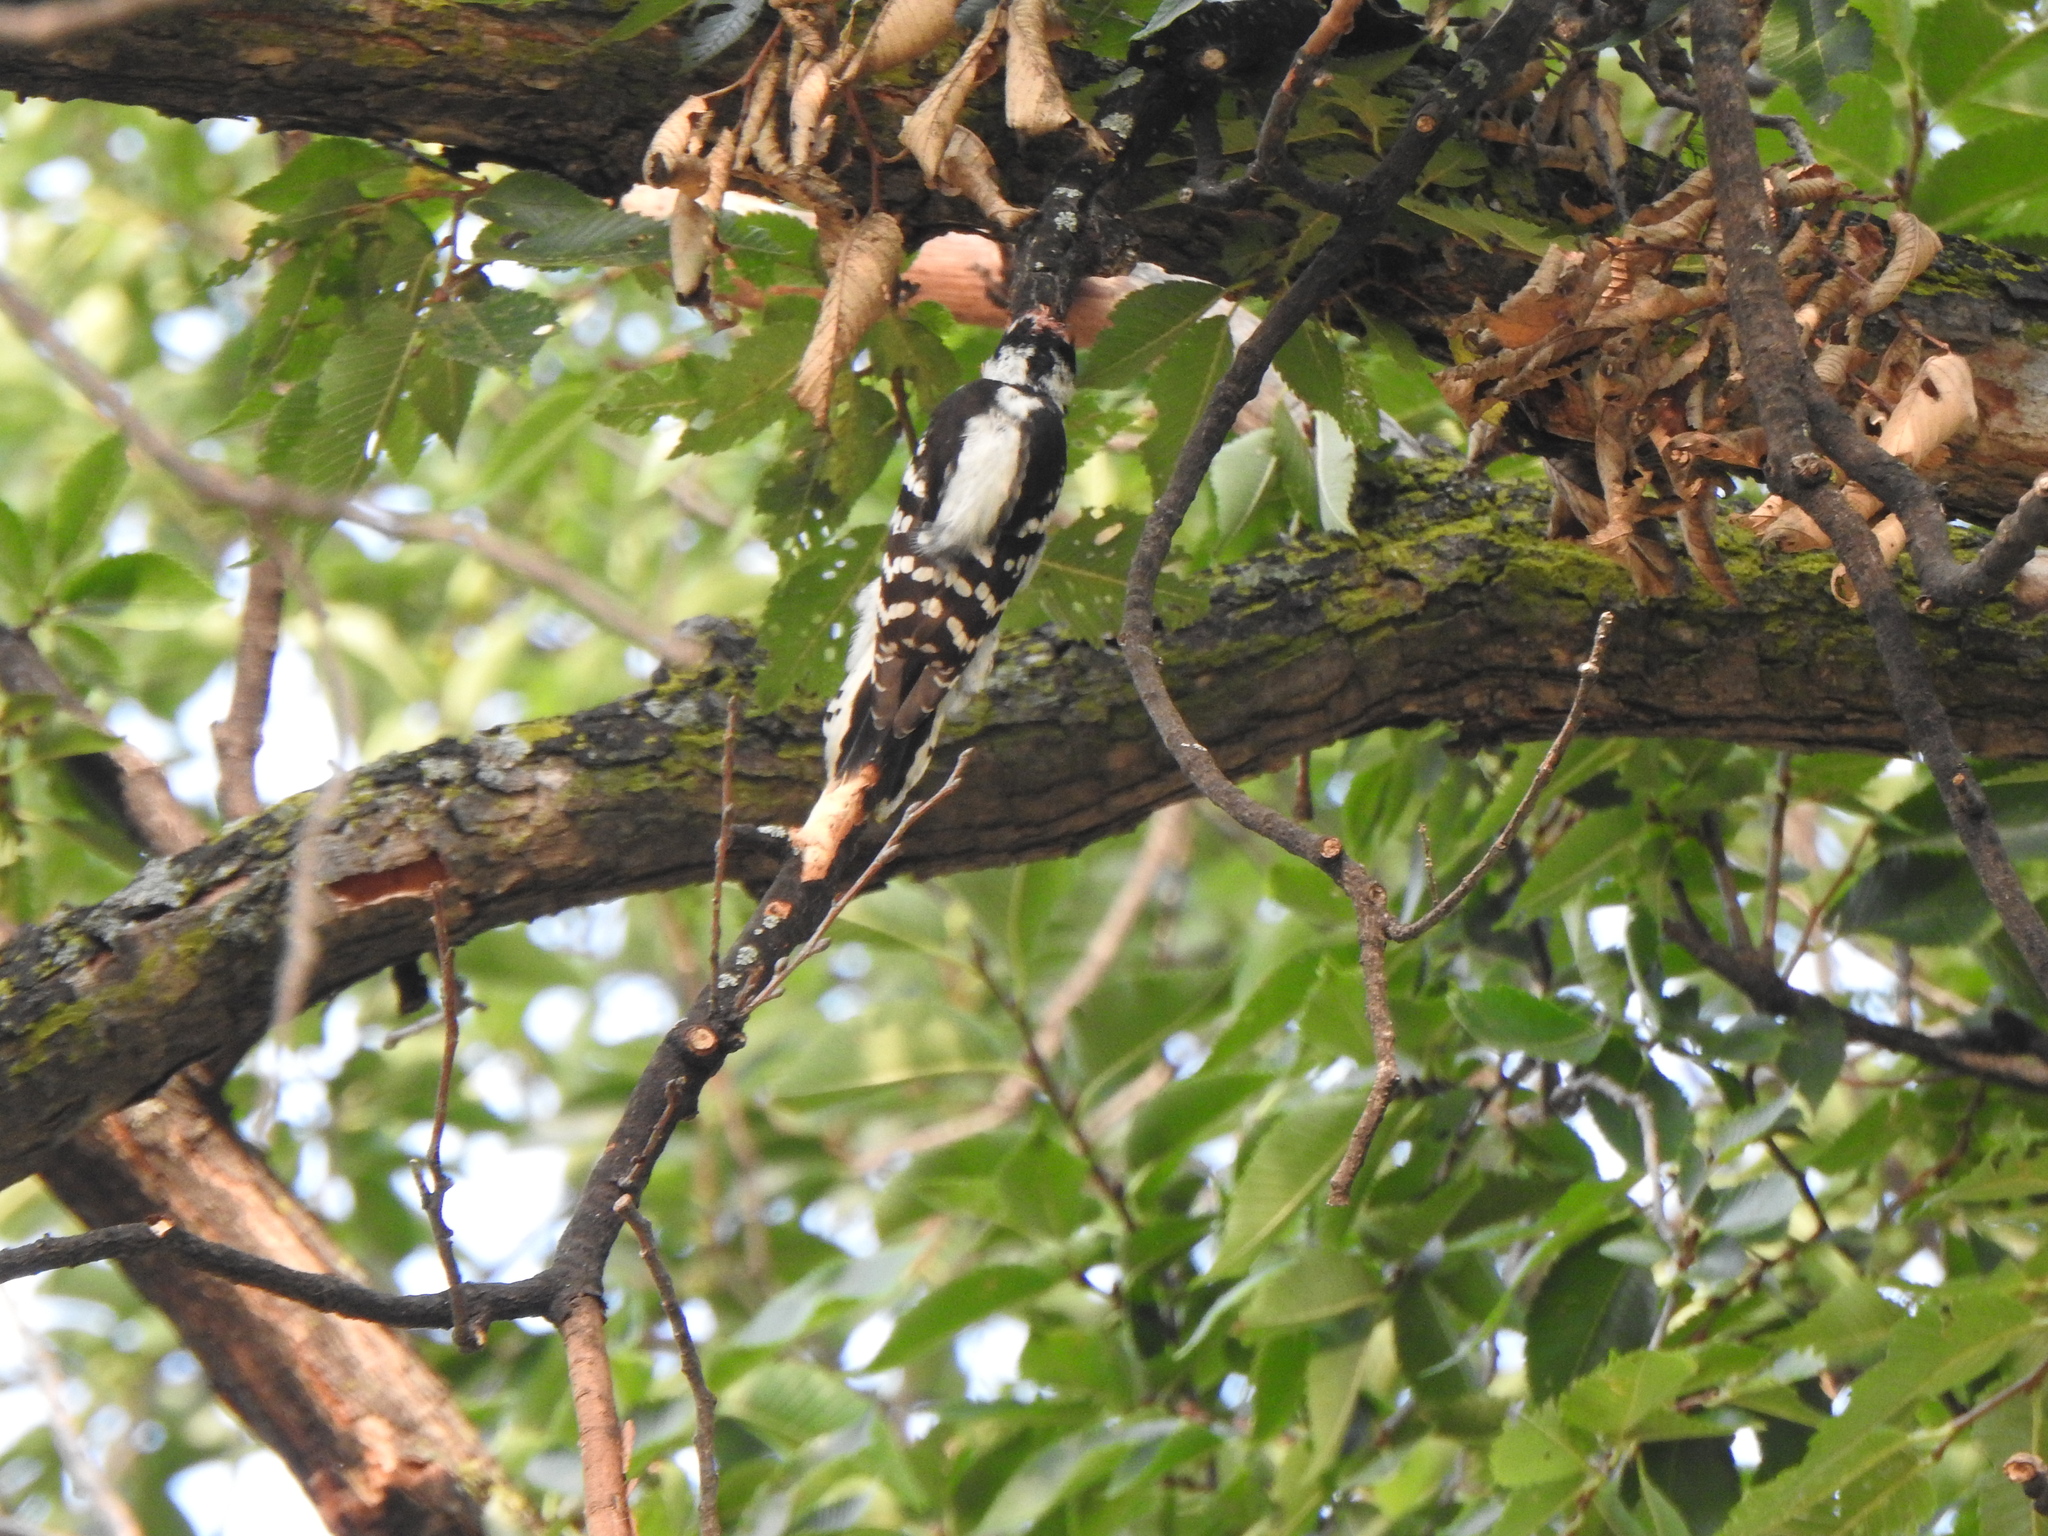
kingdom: Animalia
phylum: Chordata
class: Aves
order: Piciformes
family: Picidae
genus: Dryobates
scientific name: Dryobates pubescens
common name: Downy woodpecker
